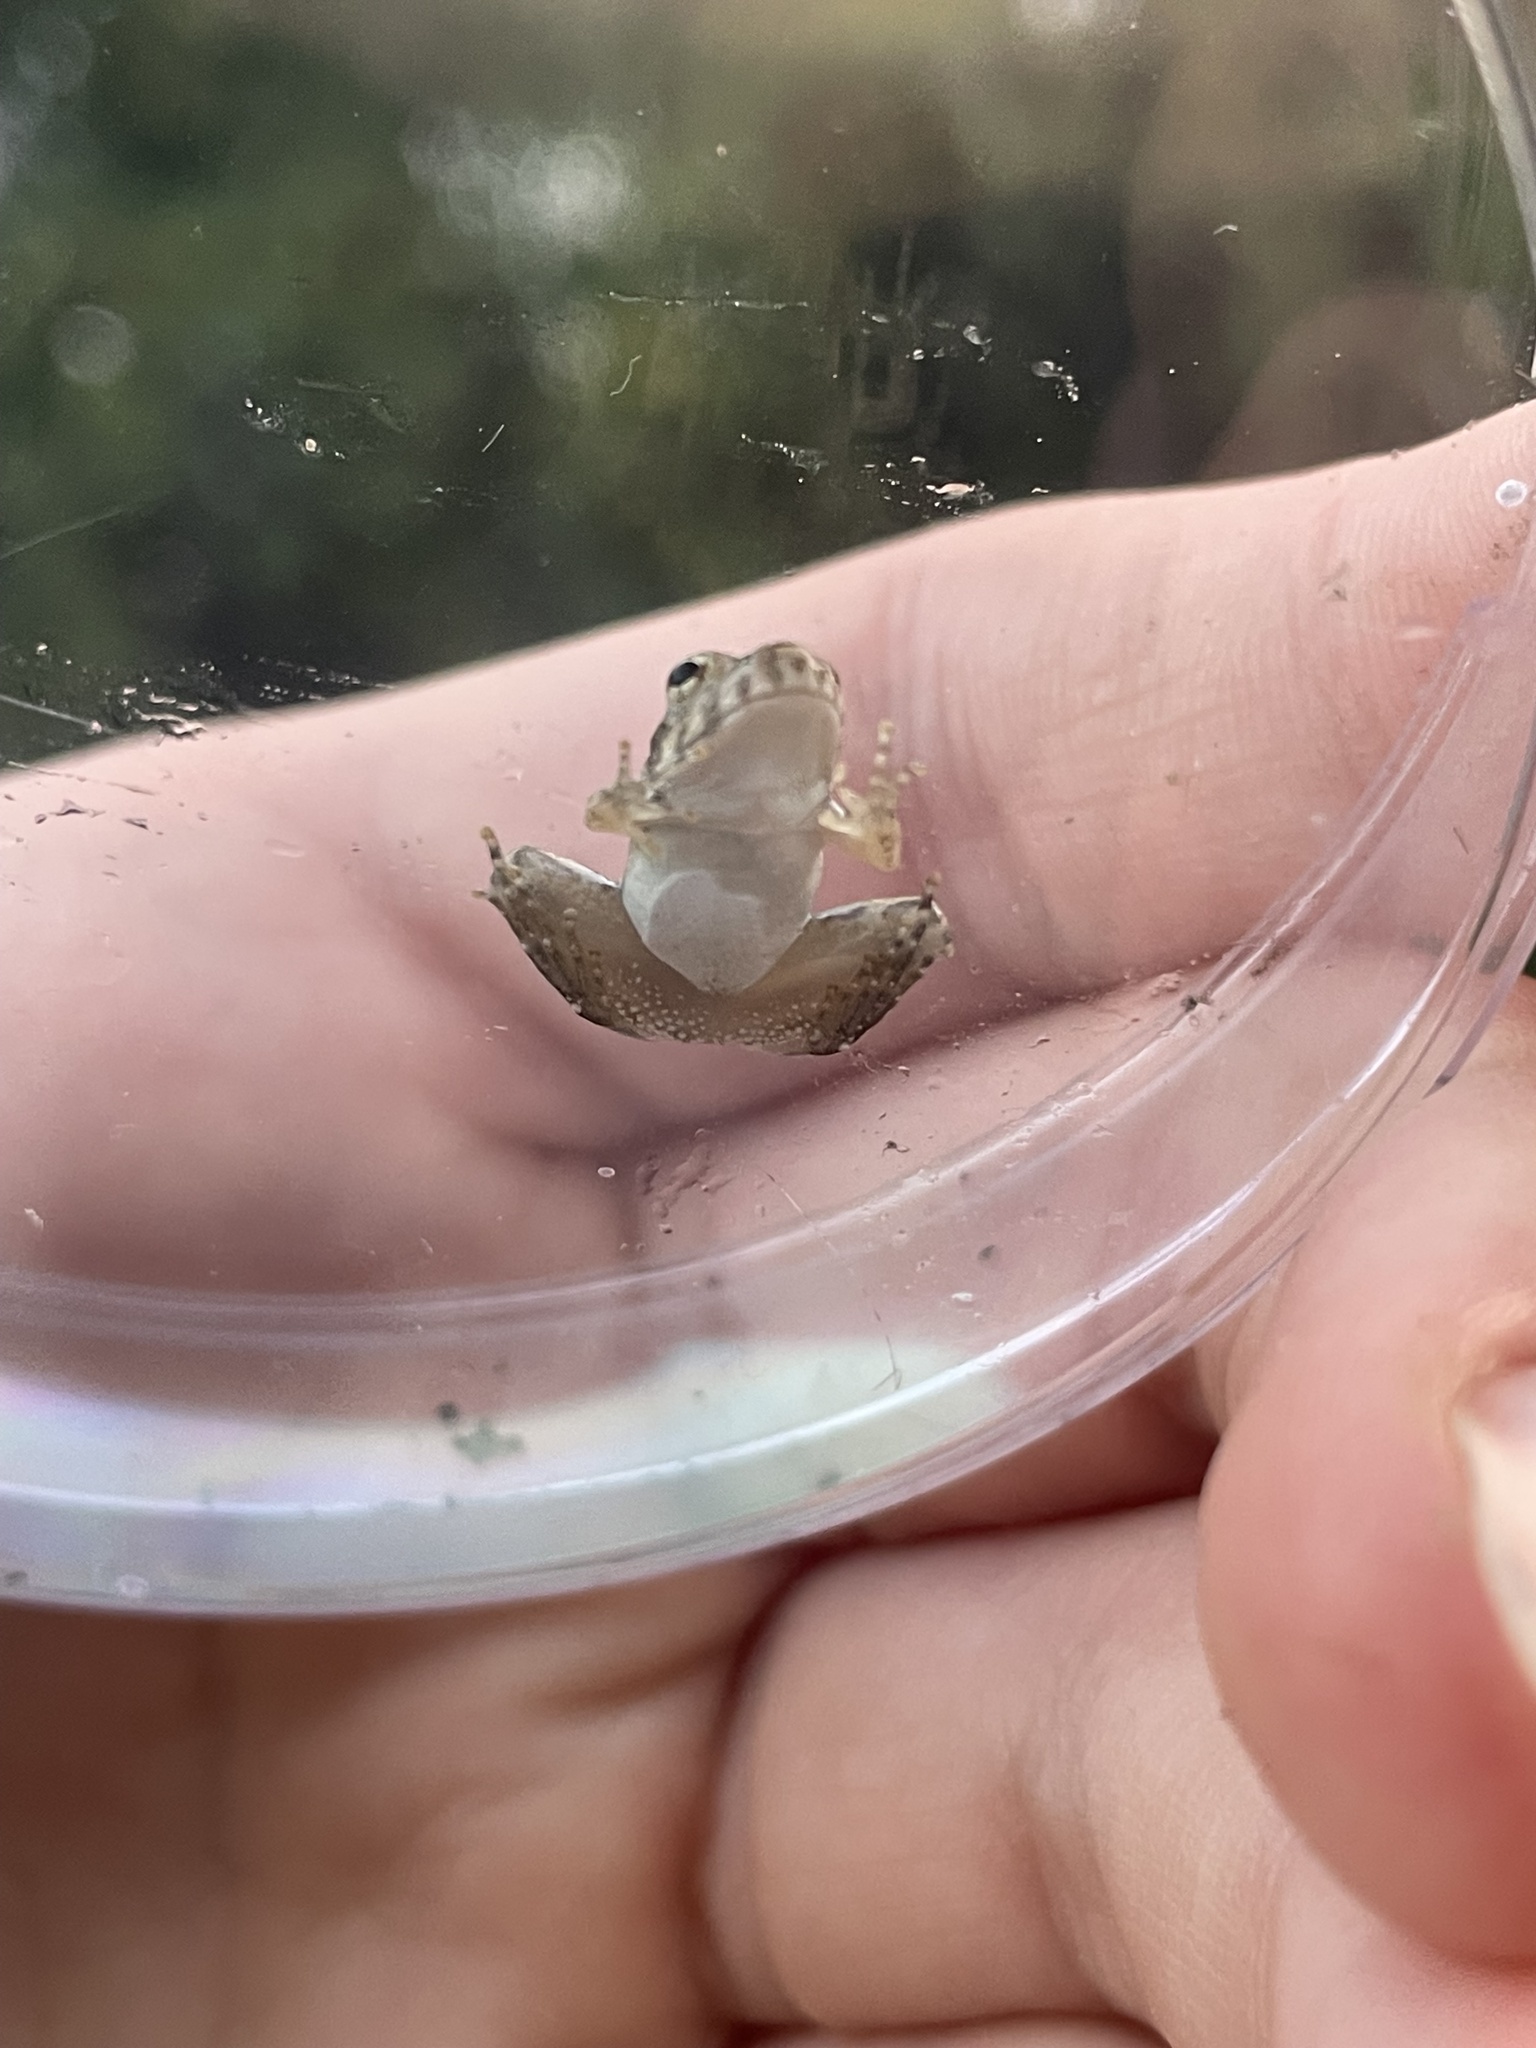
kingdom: Animalia
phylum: Chordata
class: Amphibia
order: Anura
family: Hylidae
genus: Acris
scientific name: Acris blanchardi
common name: Blanchard's cricket frog
